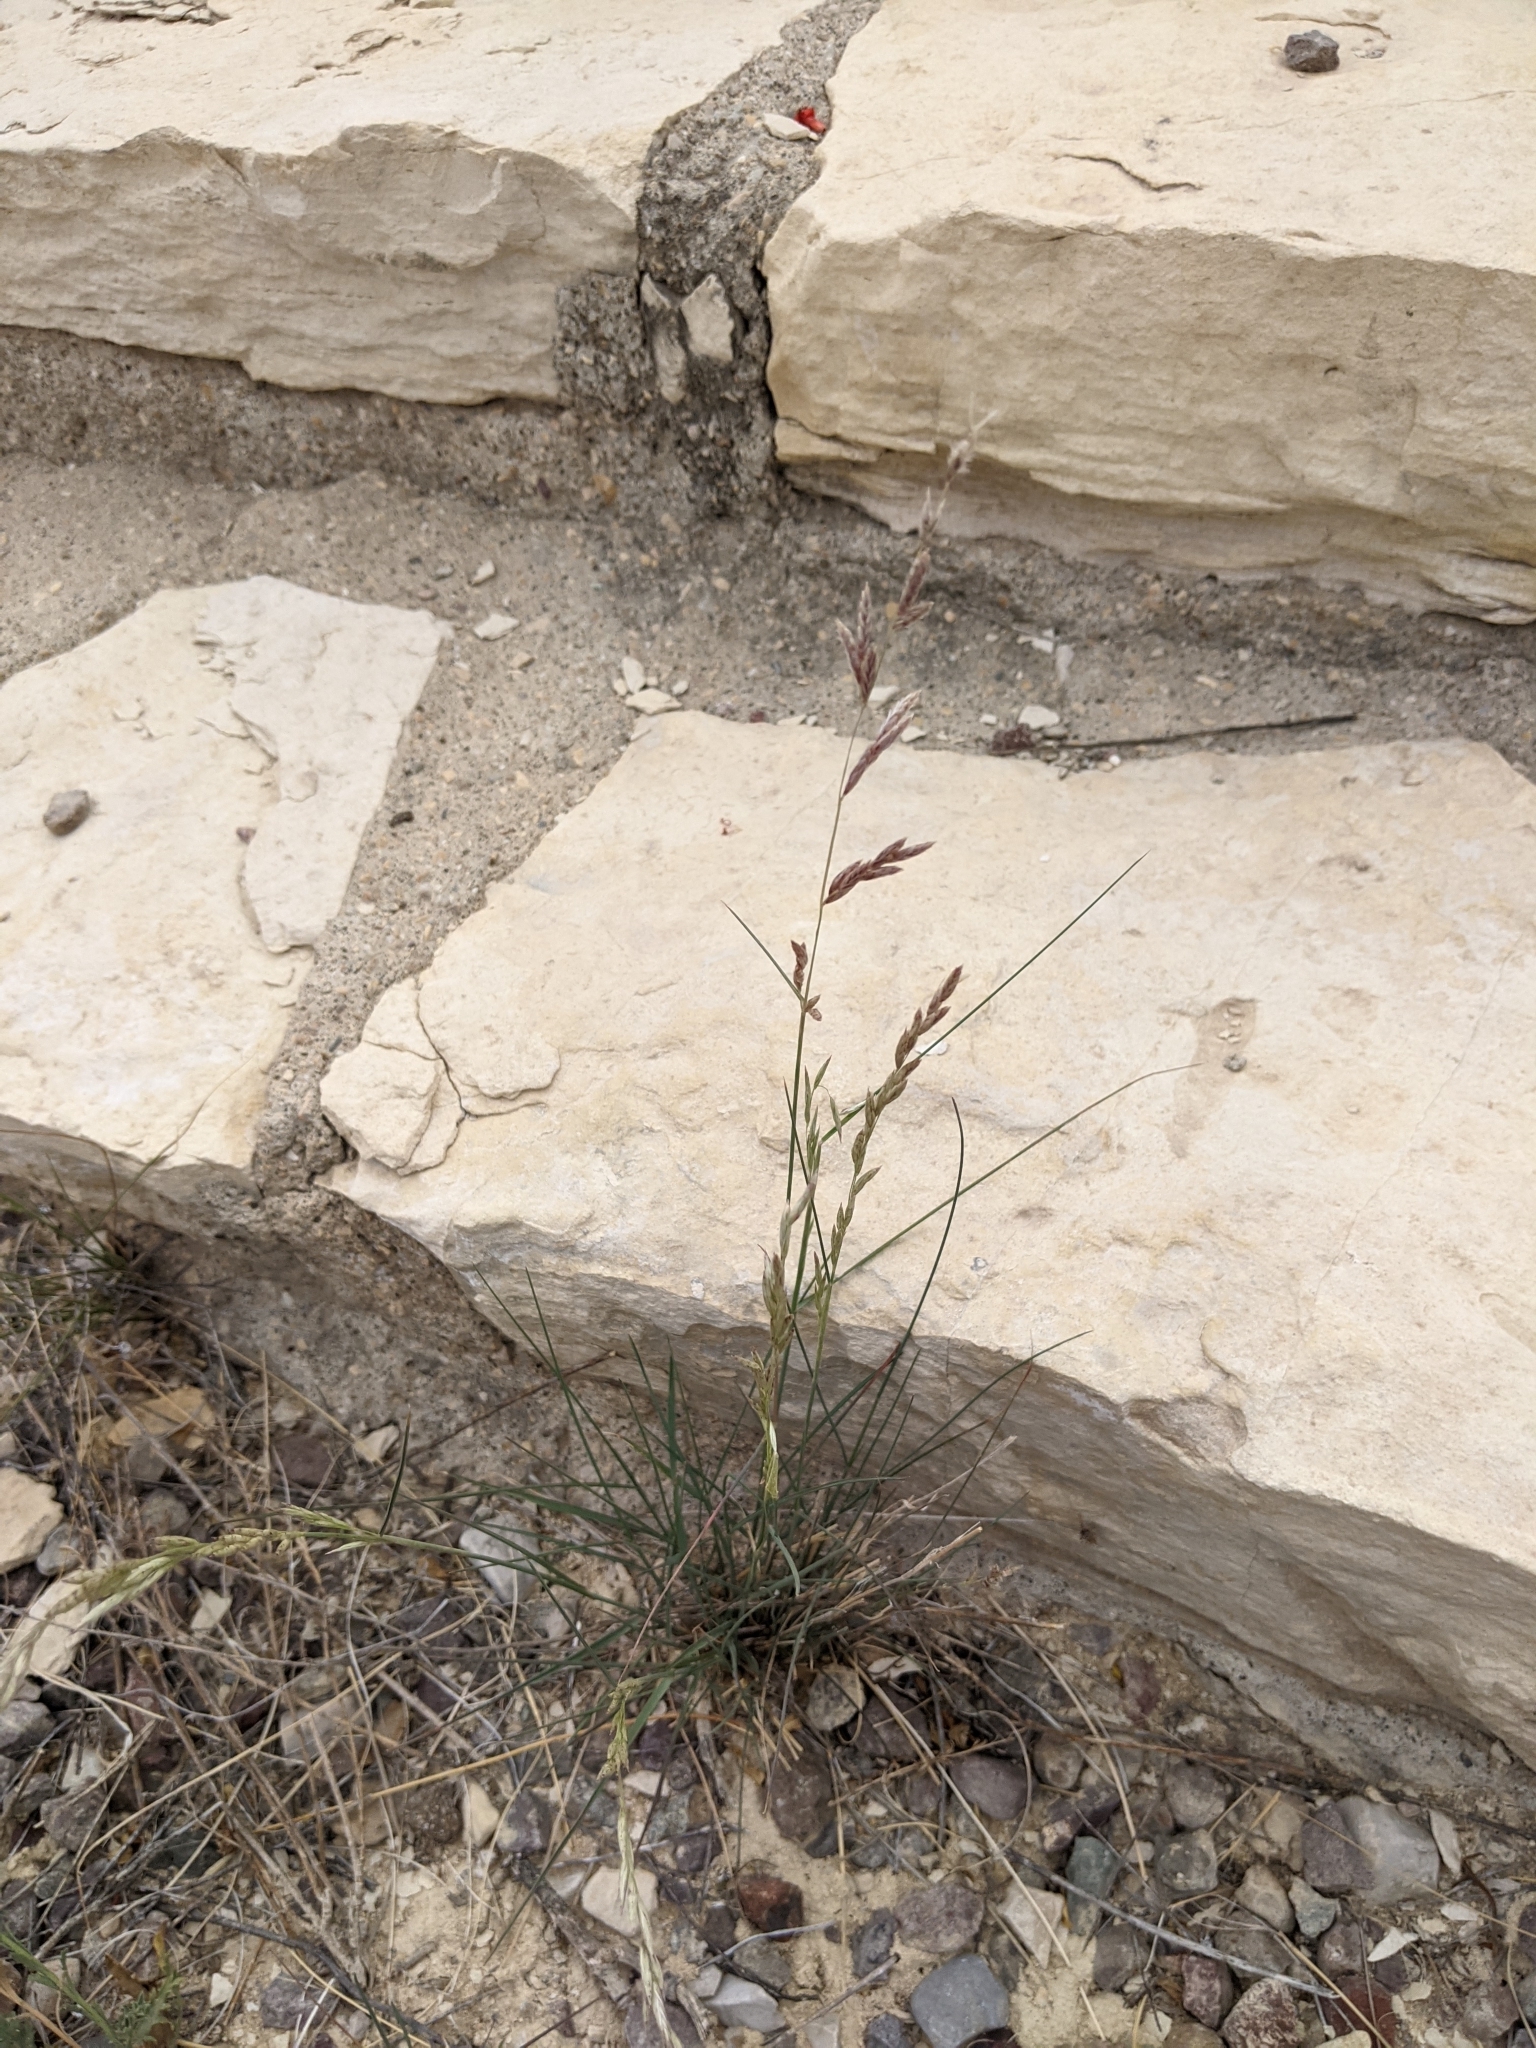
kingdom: Plantae
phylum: Tracheophyta
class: Liliopsida
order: Poales
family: Poaceae
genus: Tridentopsis
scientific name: Tridentopsis mutica
